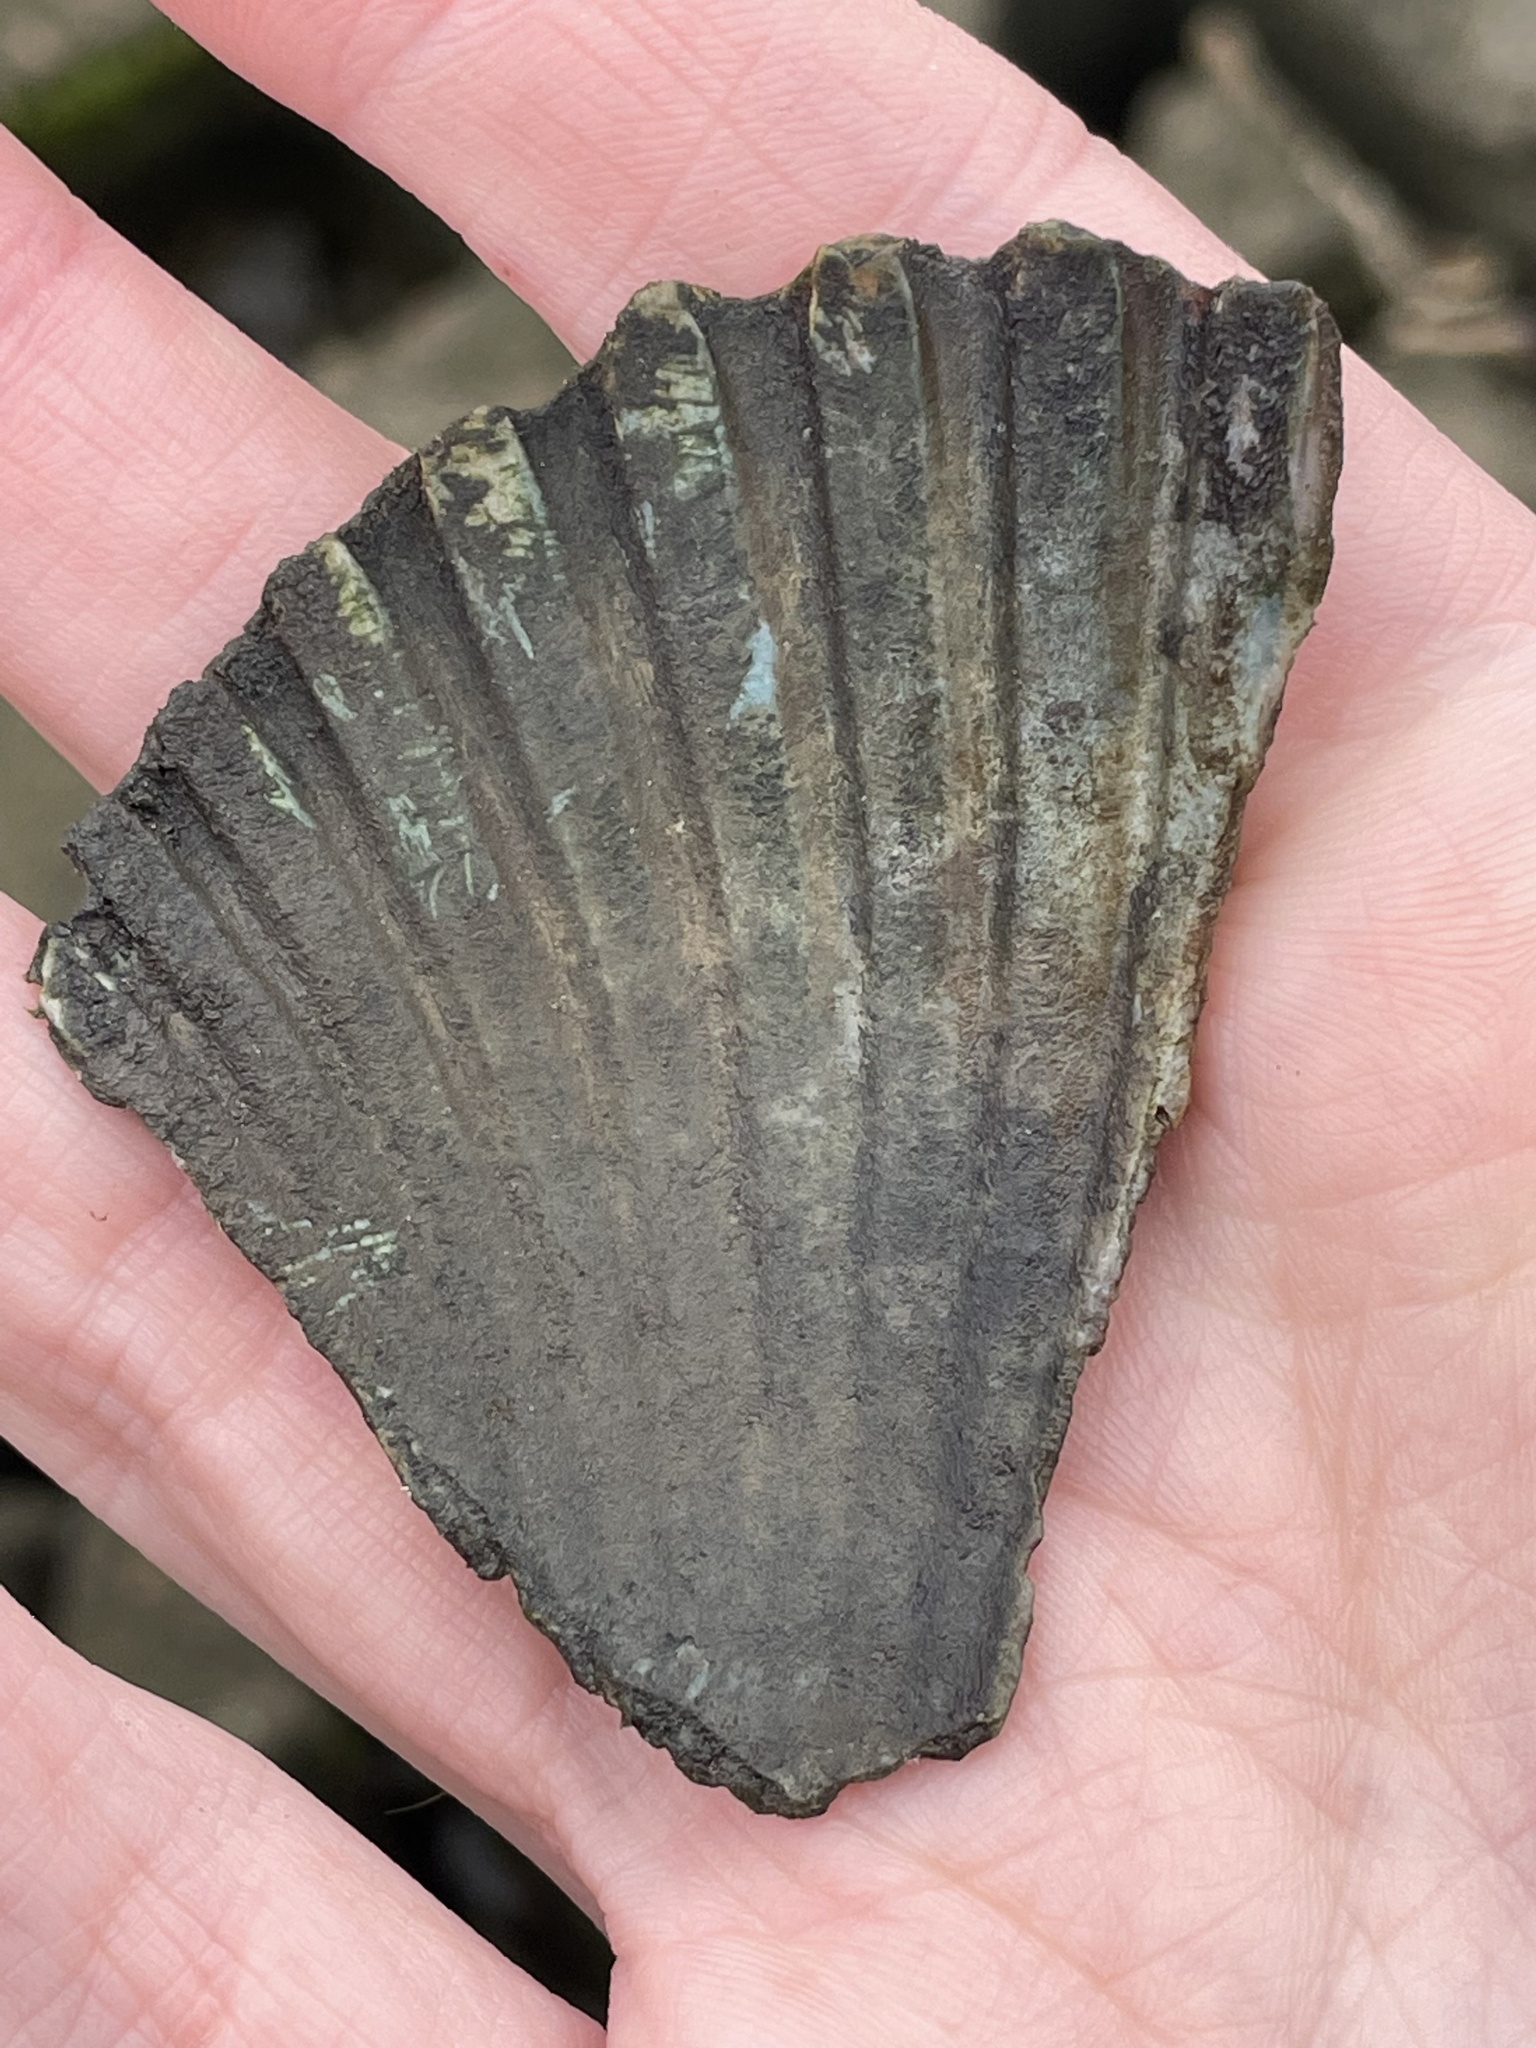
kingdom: Animalia
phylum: Mollusca
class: Bivalvia
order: Pectinida
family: Pectinidae
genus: Argopecten
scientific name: Argopecten irradians
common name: Atlantic bay scallop
